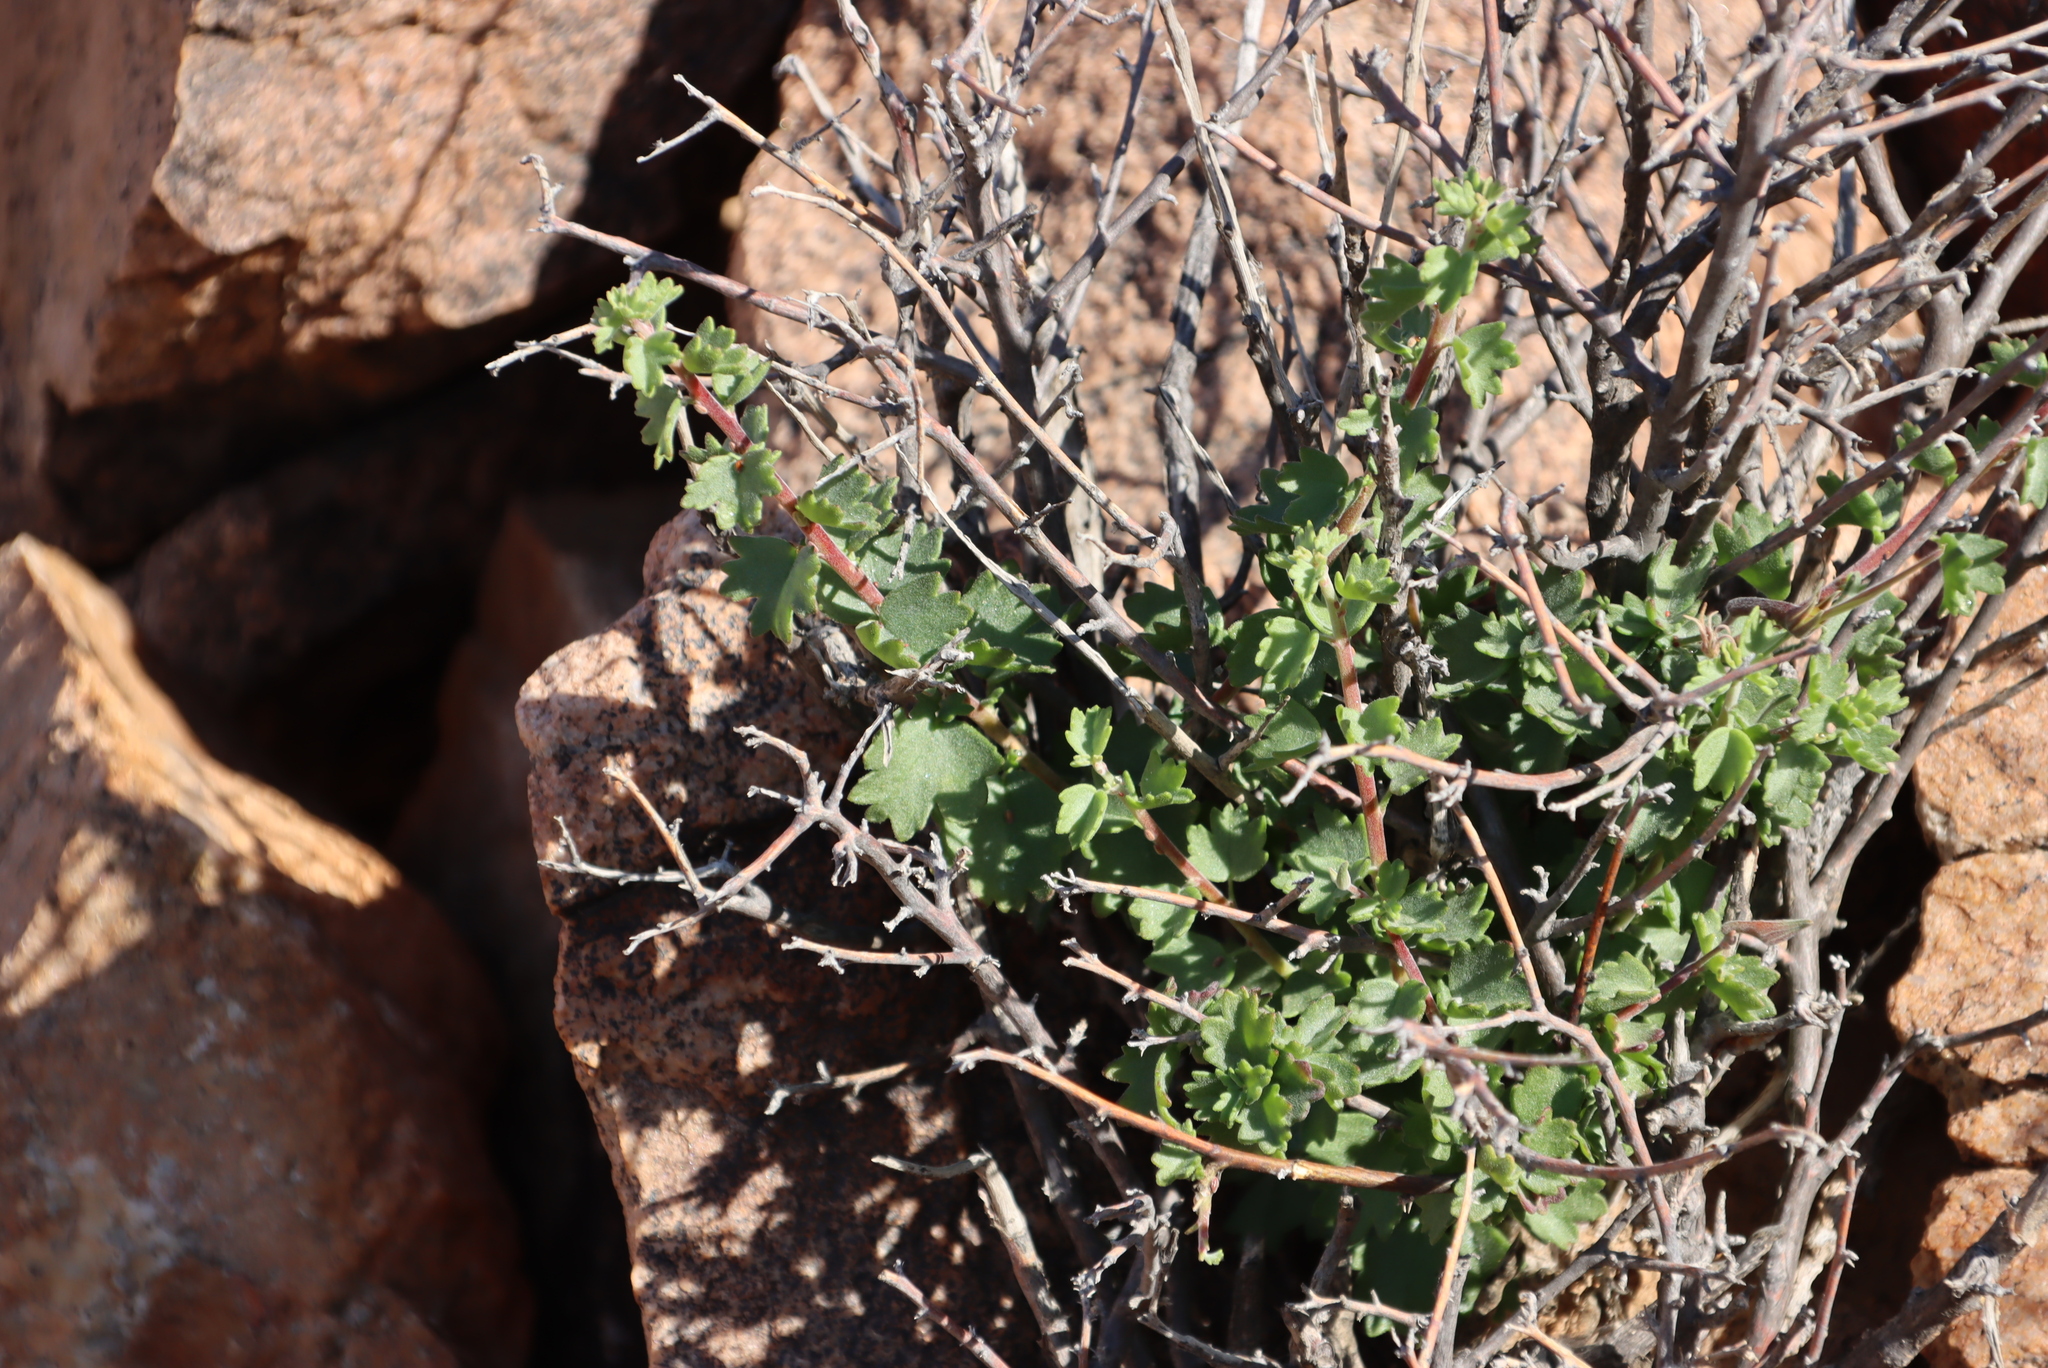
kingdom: Plantae
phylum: Tracheophyta
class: Magnoliopsida
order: Geraniales
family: Geraniaceae
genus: Pelargonium
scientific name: Pelargonium grandicalcaratum
